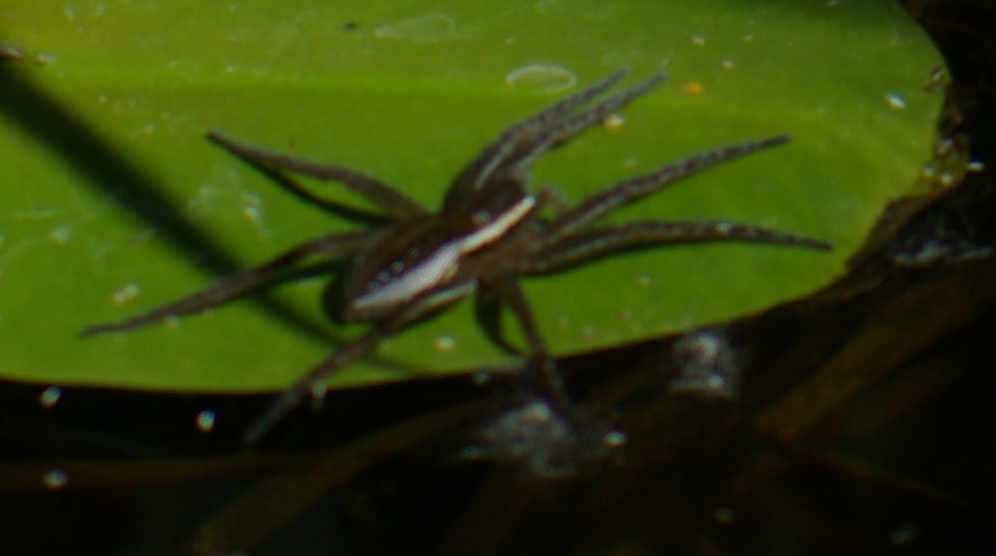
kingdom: Animalia
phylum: Arthropoda
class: Arachnida
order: Araneae
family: Pisauridae
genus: Dolomedes
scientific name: Dolomedes triton
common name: Six-spotted fishing spider
